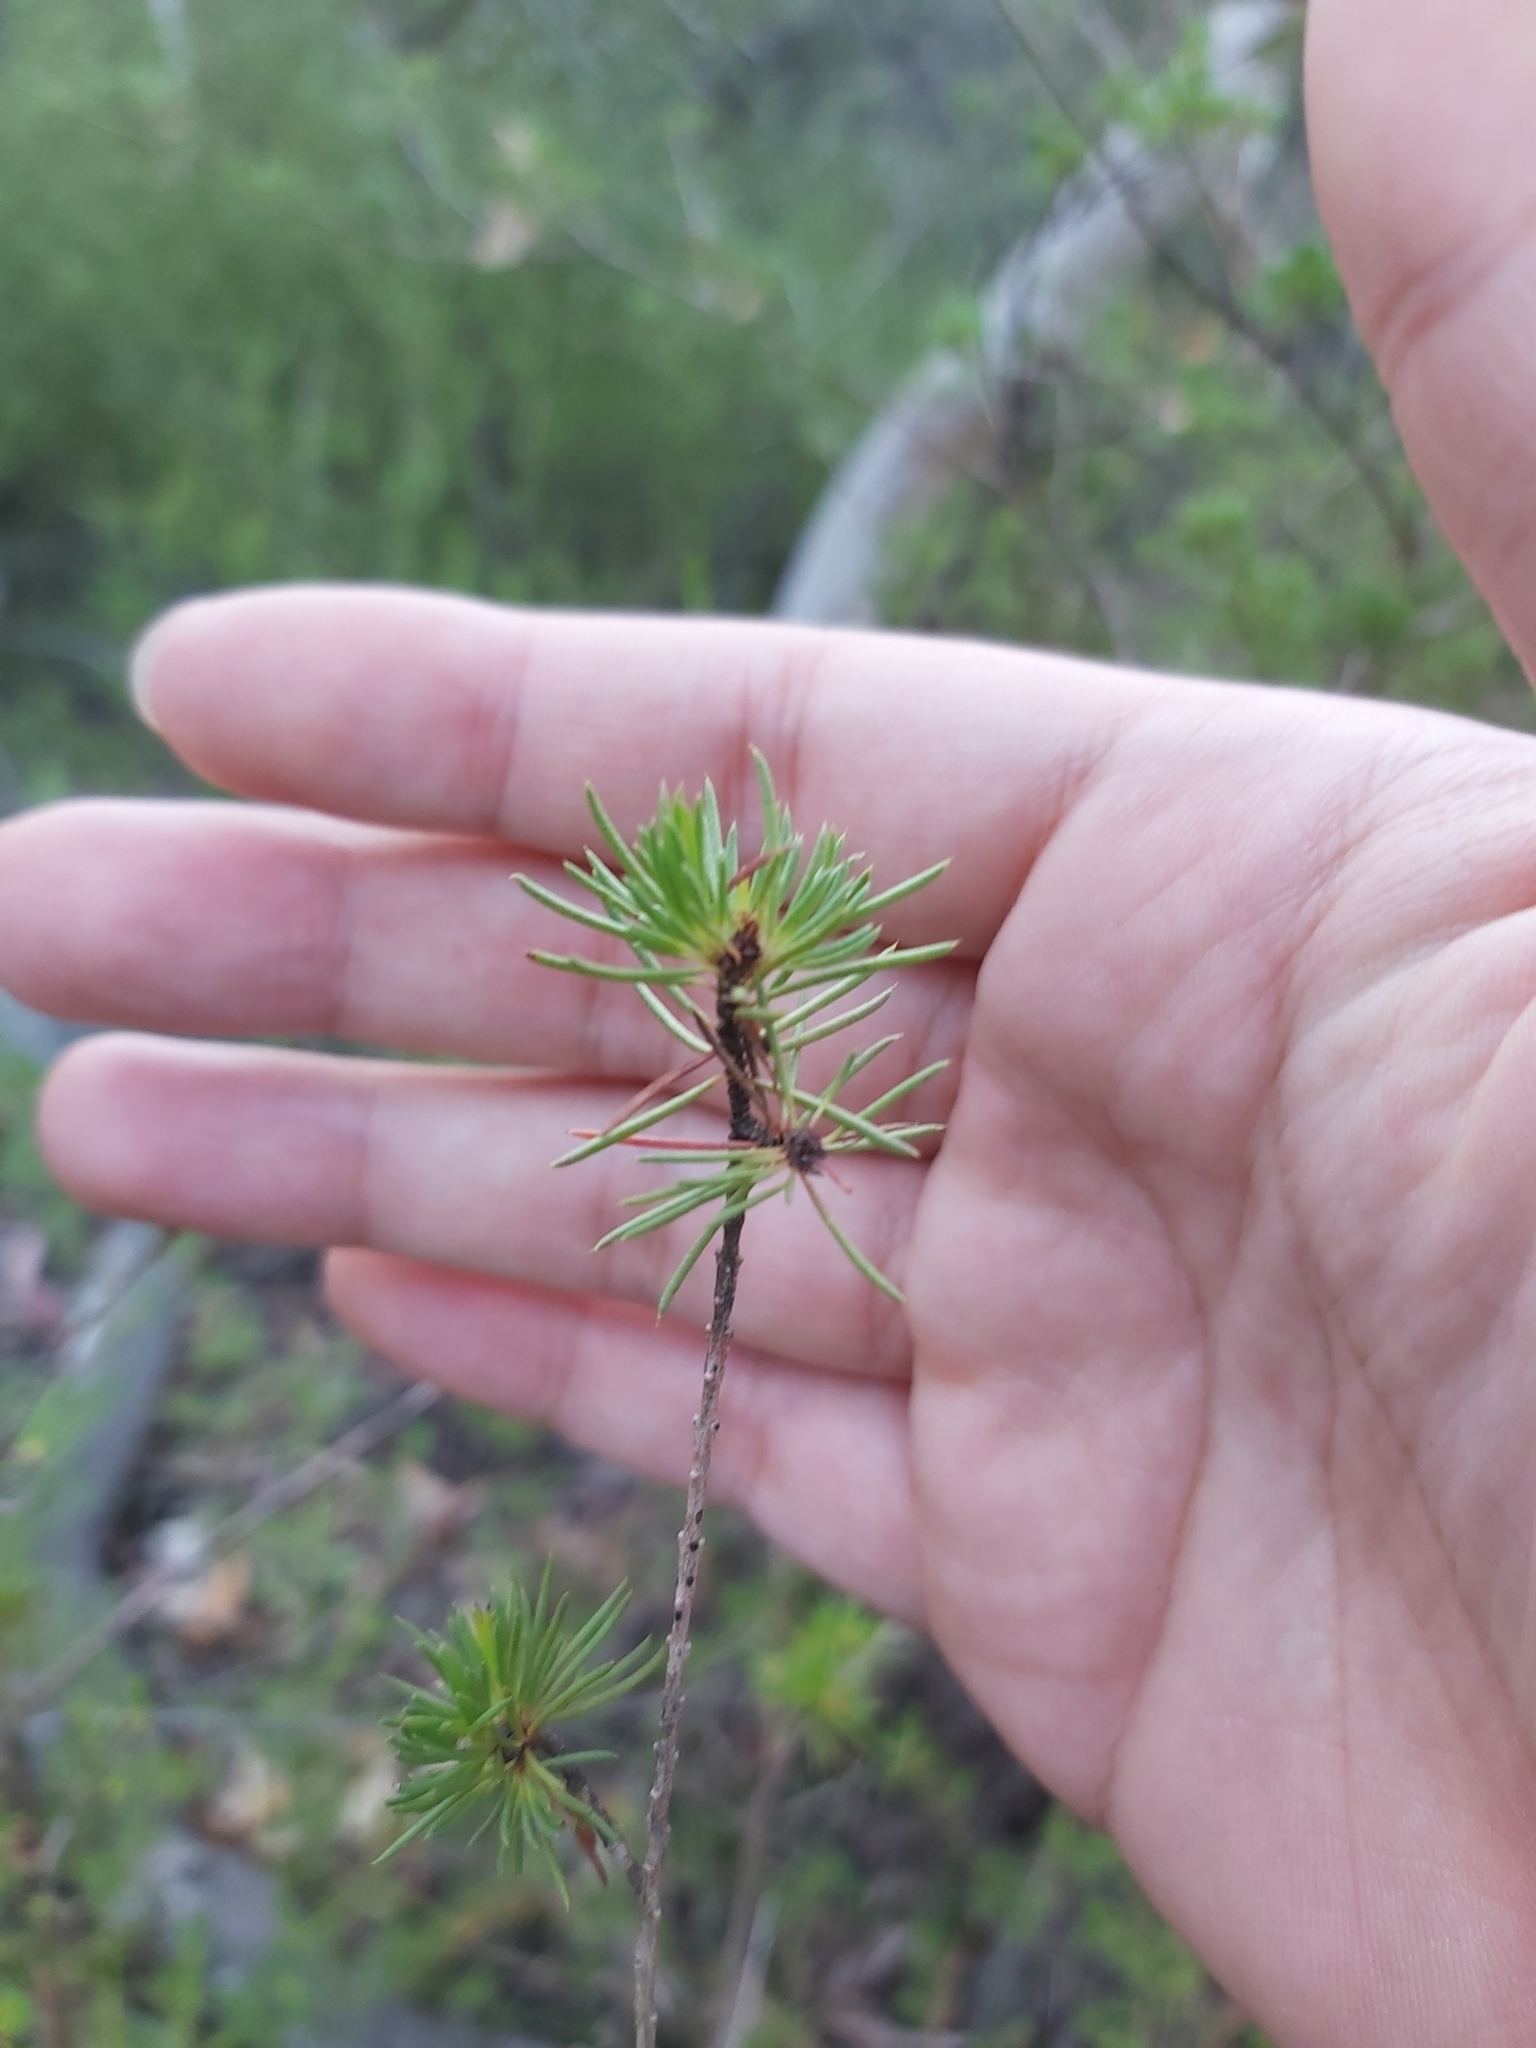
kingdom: Plantae
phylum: Tracheophyta
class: Magnoliopsida
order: Myrtales
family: Myrtaceae
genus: Darwinia
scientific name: Darwinia fascicularis
